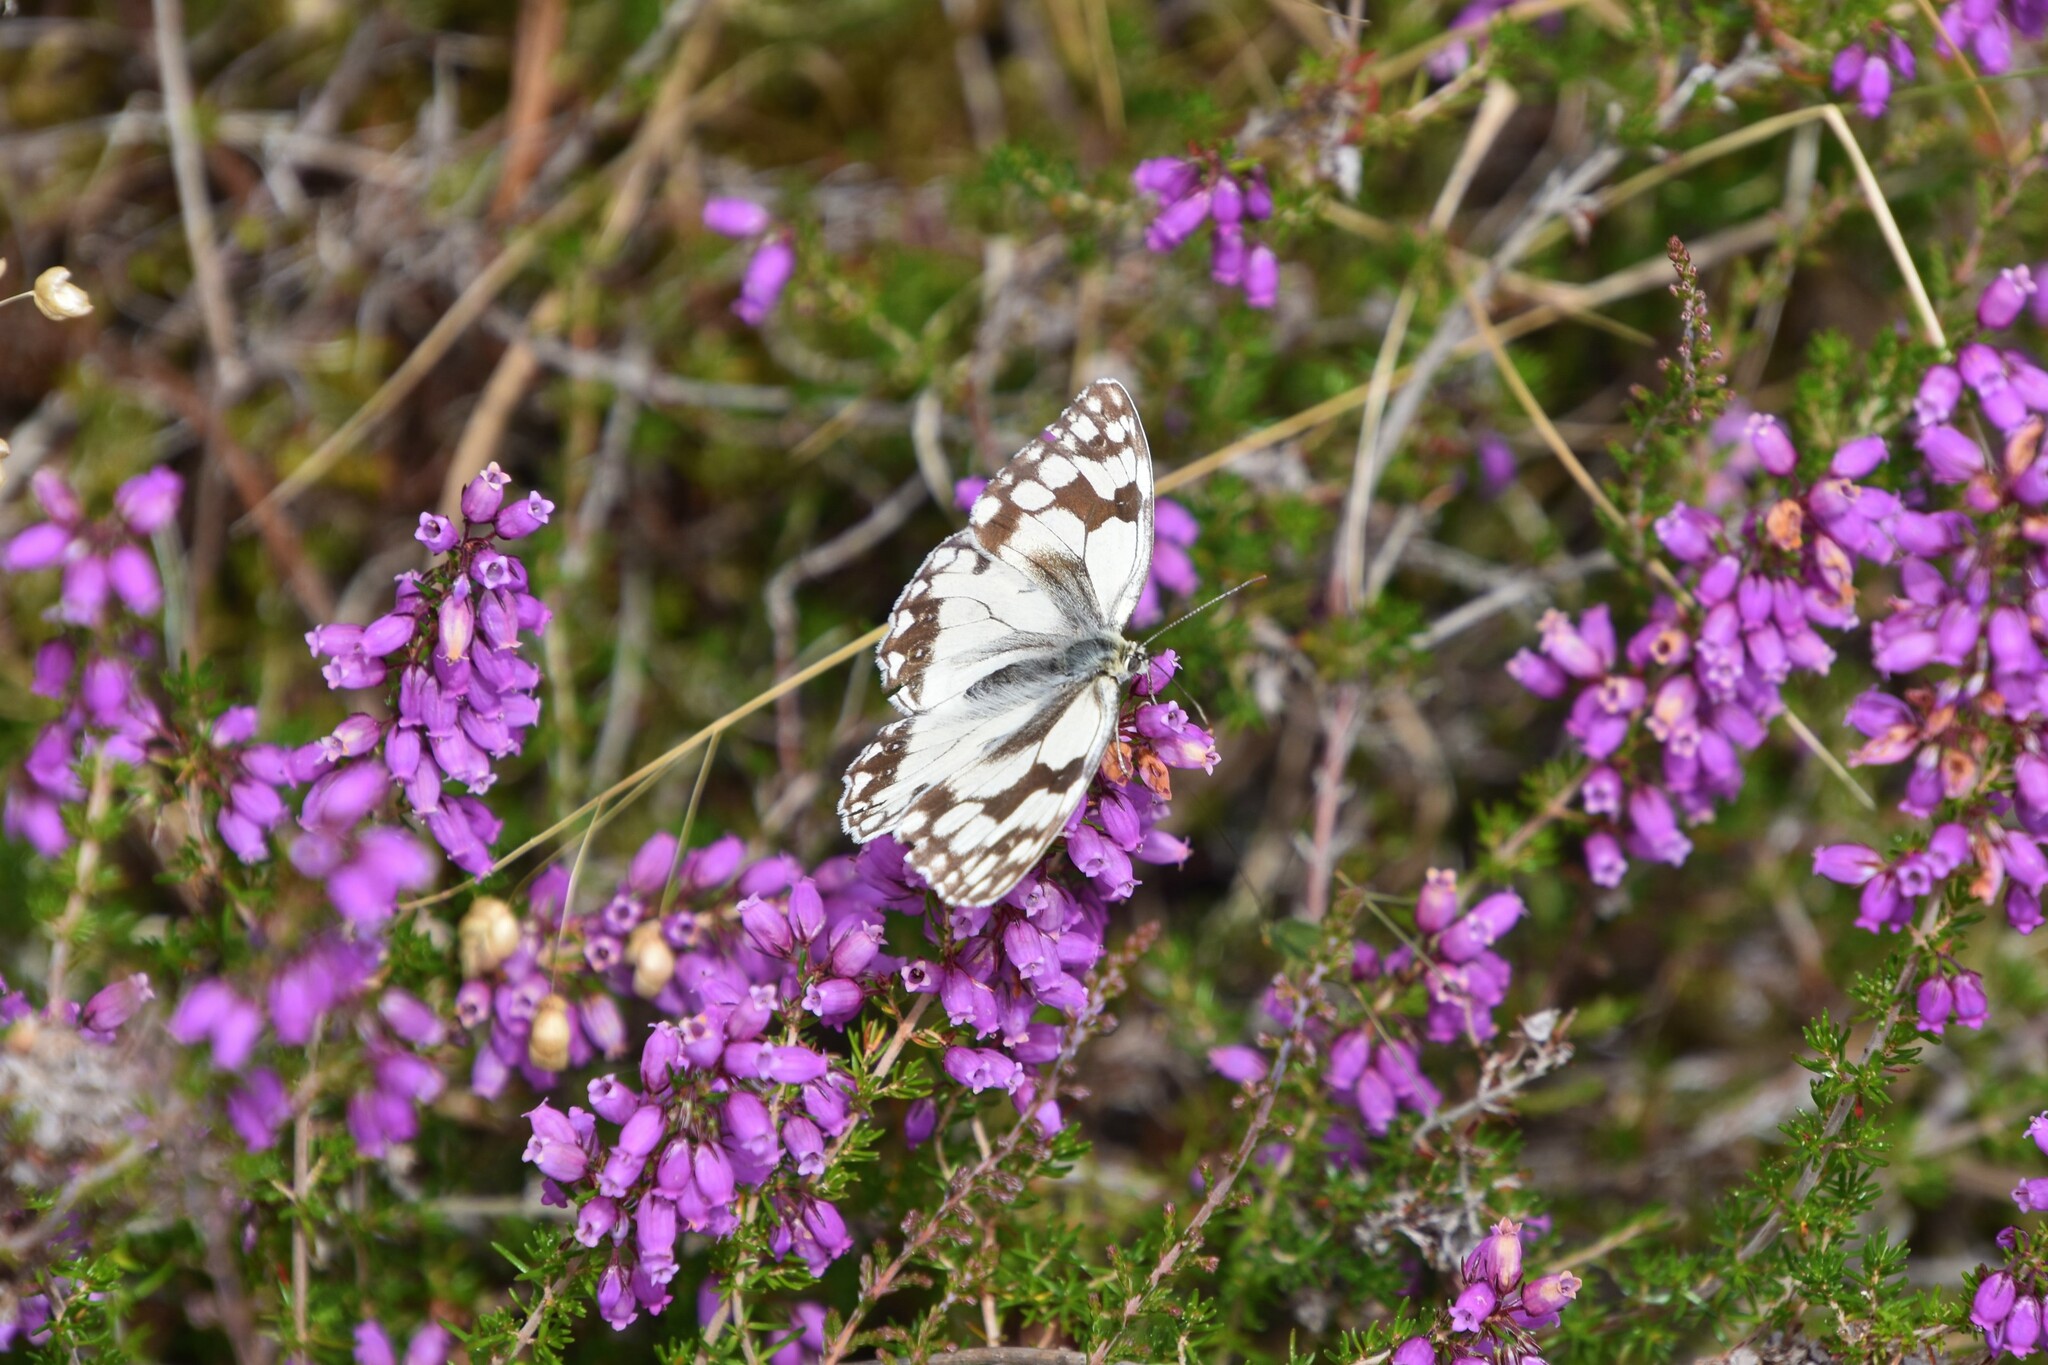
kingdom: Animalia
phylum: Arthropoda
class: Insecta
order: Lepidoptera
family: Nymphalidae
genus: Melanargia
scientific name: Melanargia lachesis
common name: Iberian marbled white
